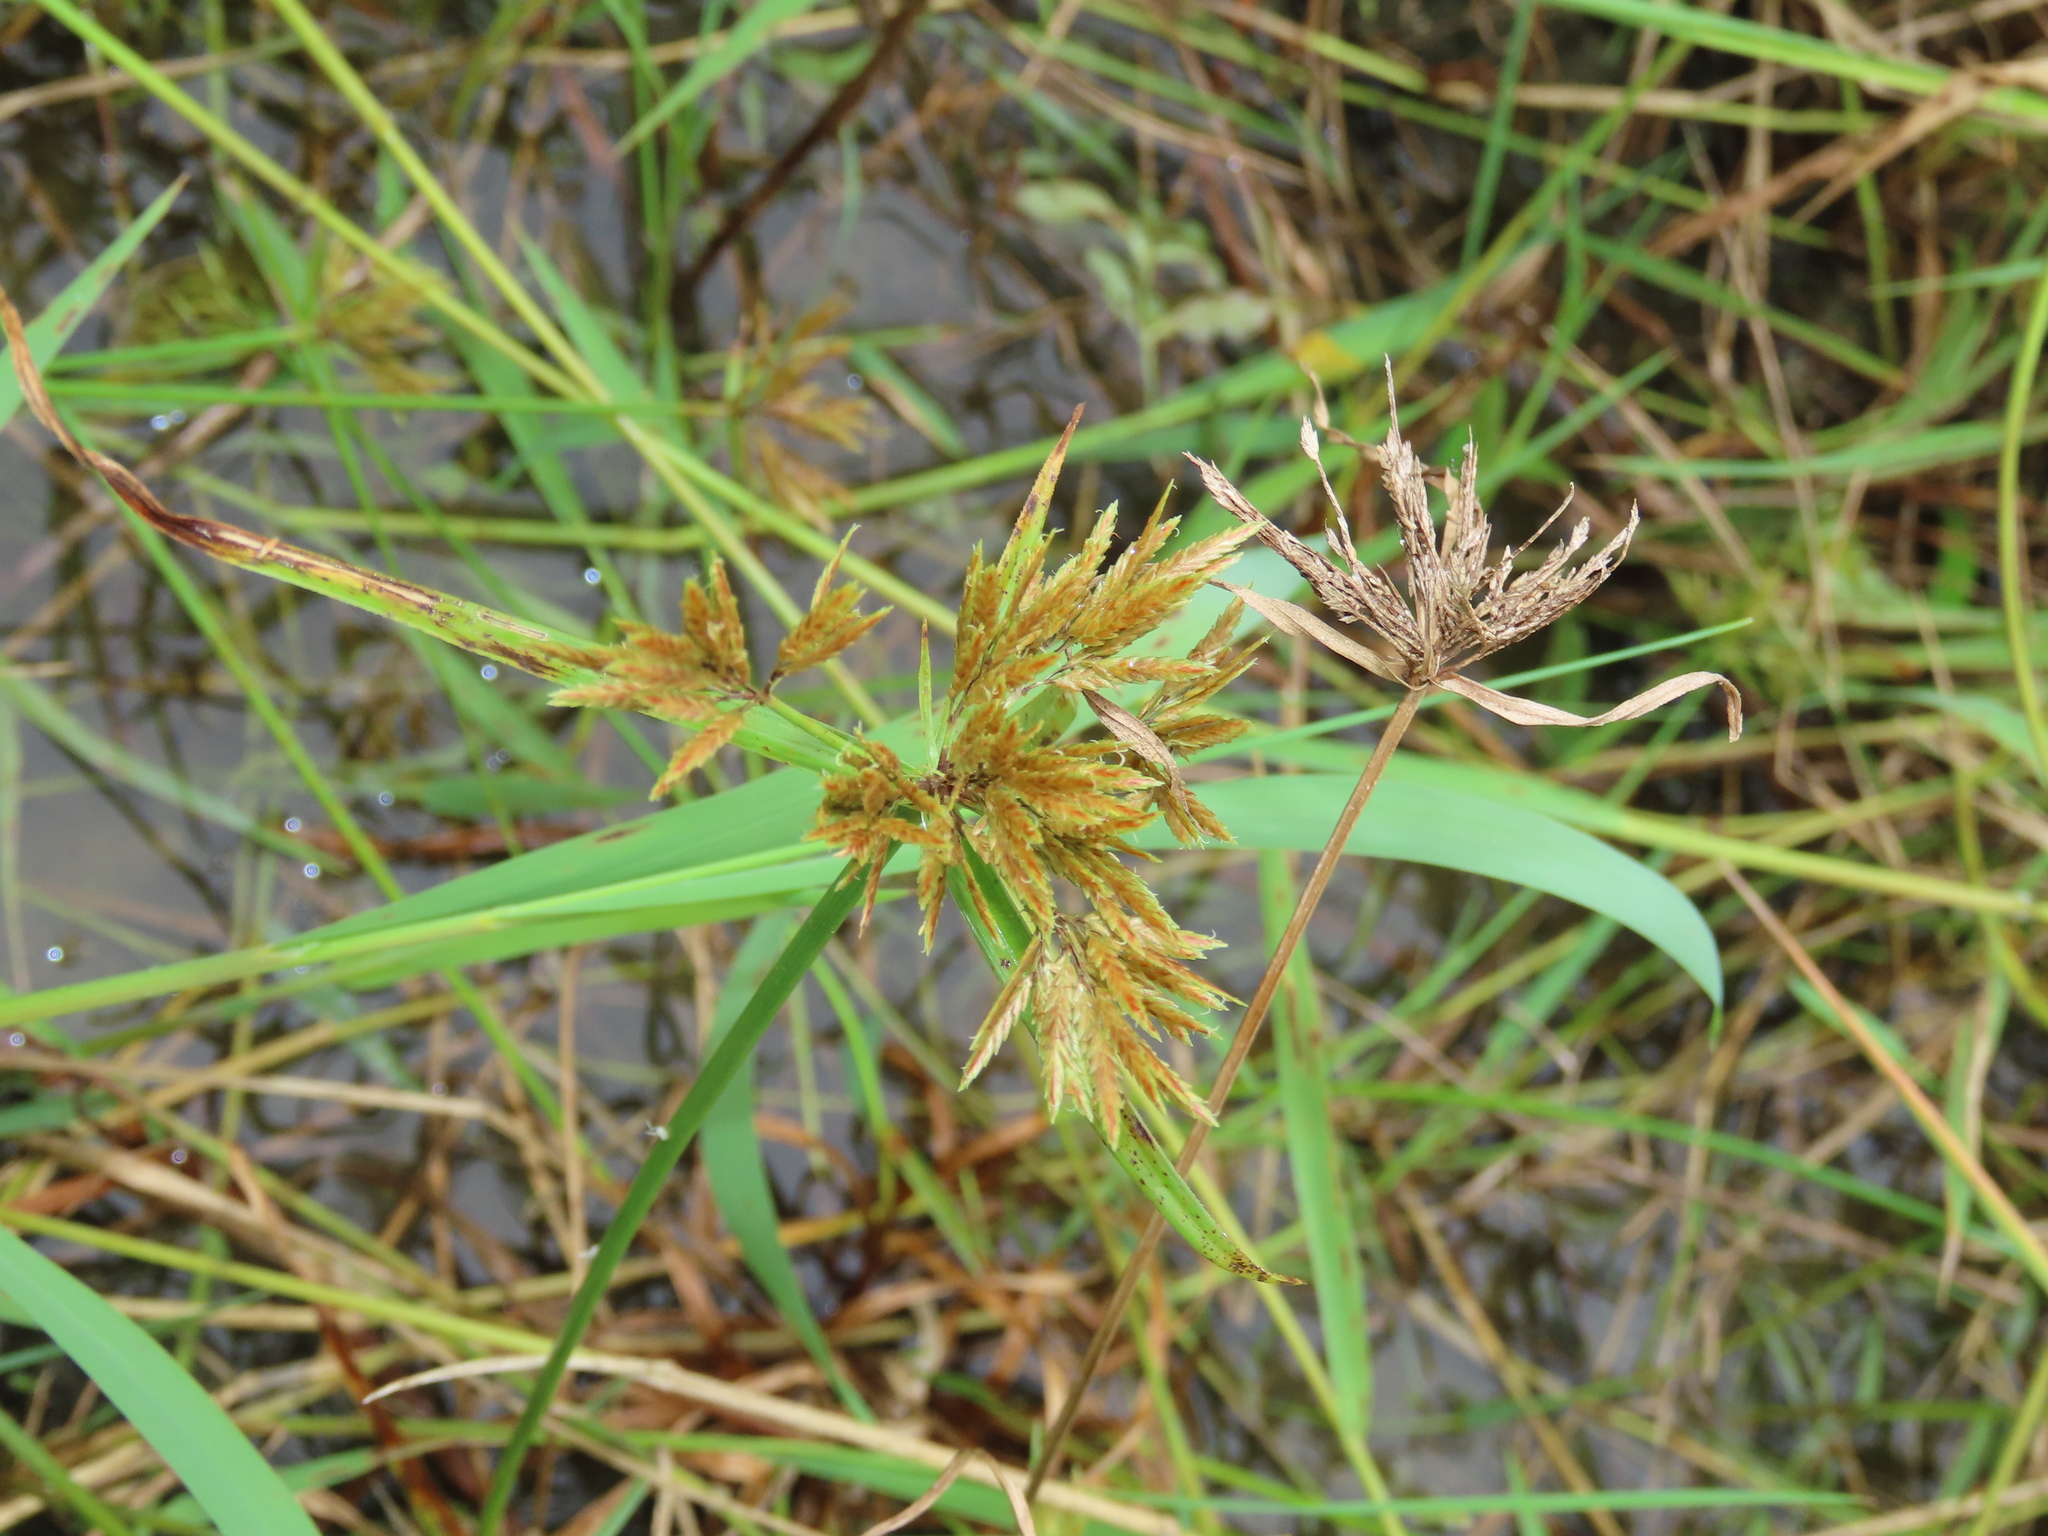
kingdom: Plantae
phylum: Tracheophyta
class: Liliopsida
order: Poales
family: Cyperaceae
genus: Cyperus
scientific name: Cyperus polystachyos
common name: Bunchy flat sedge
